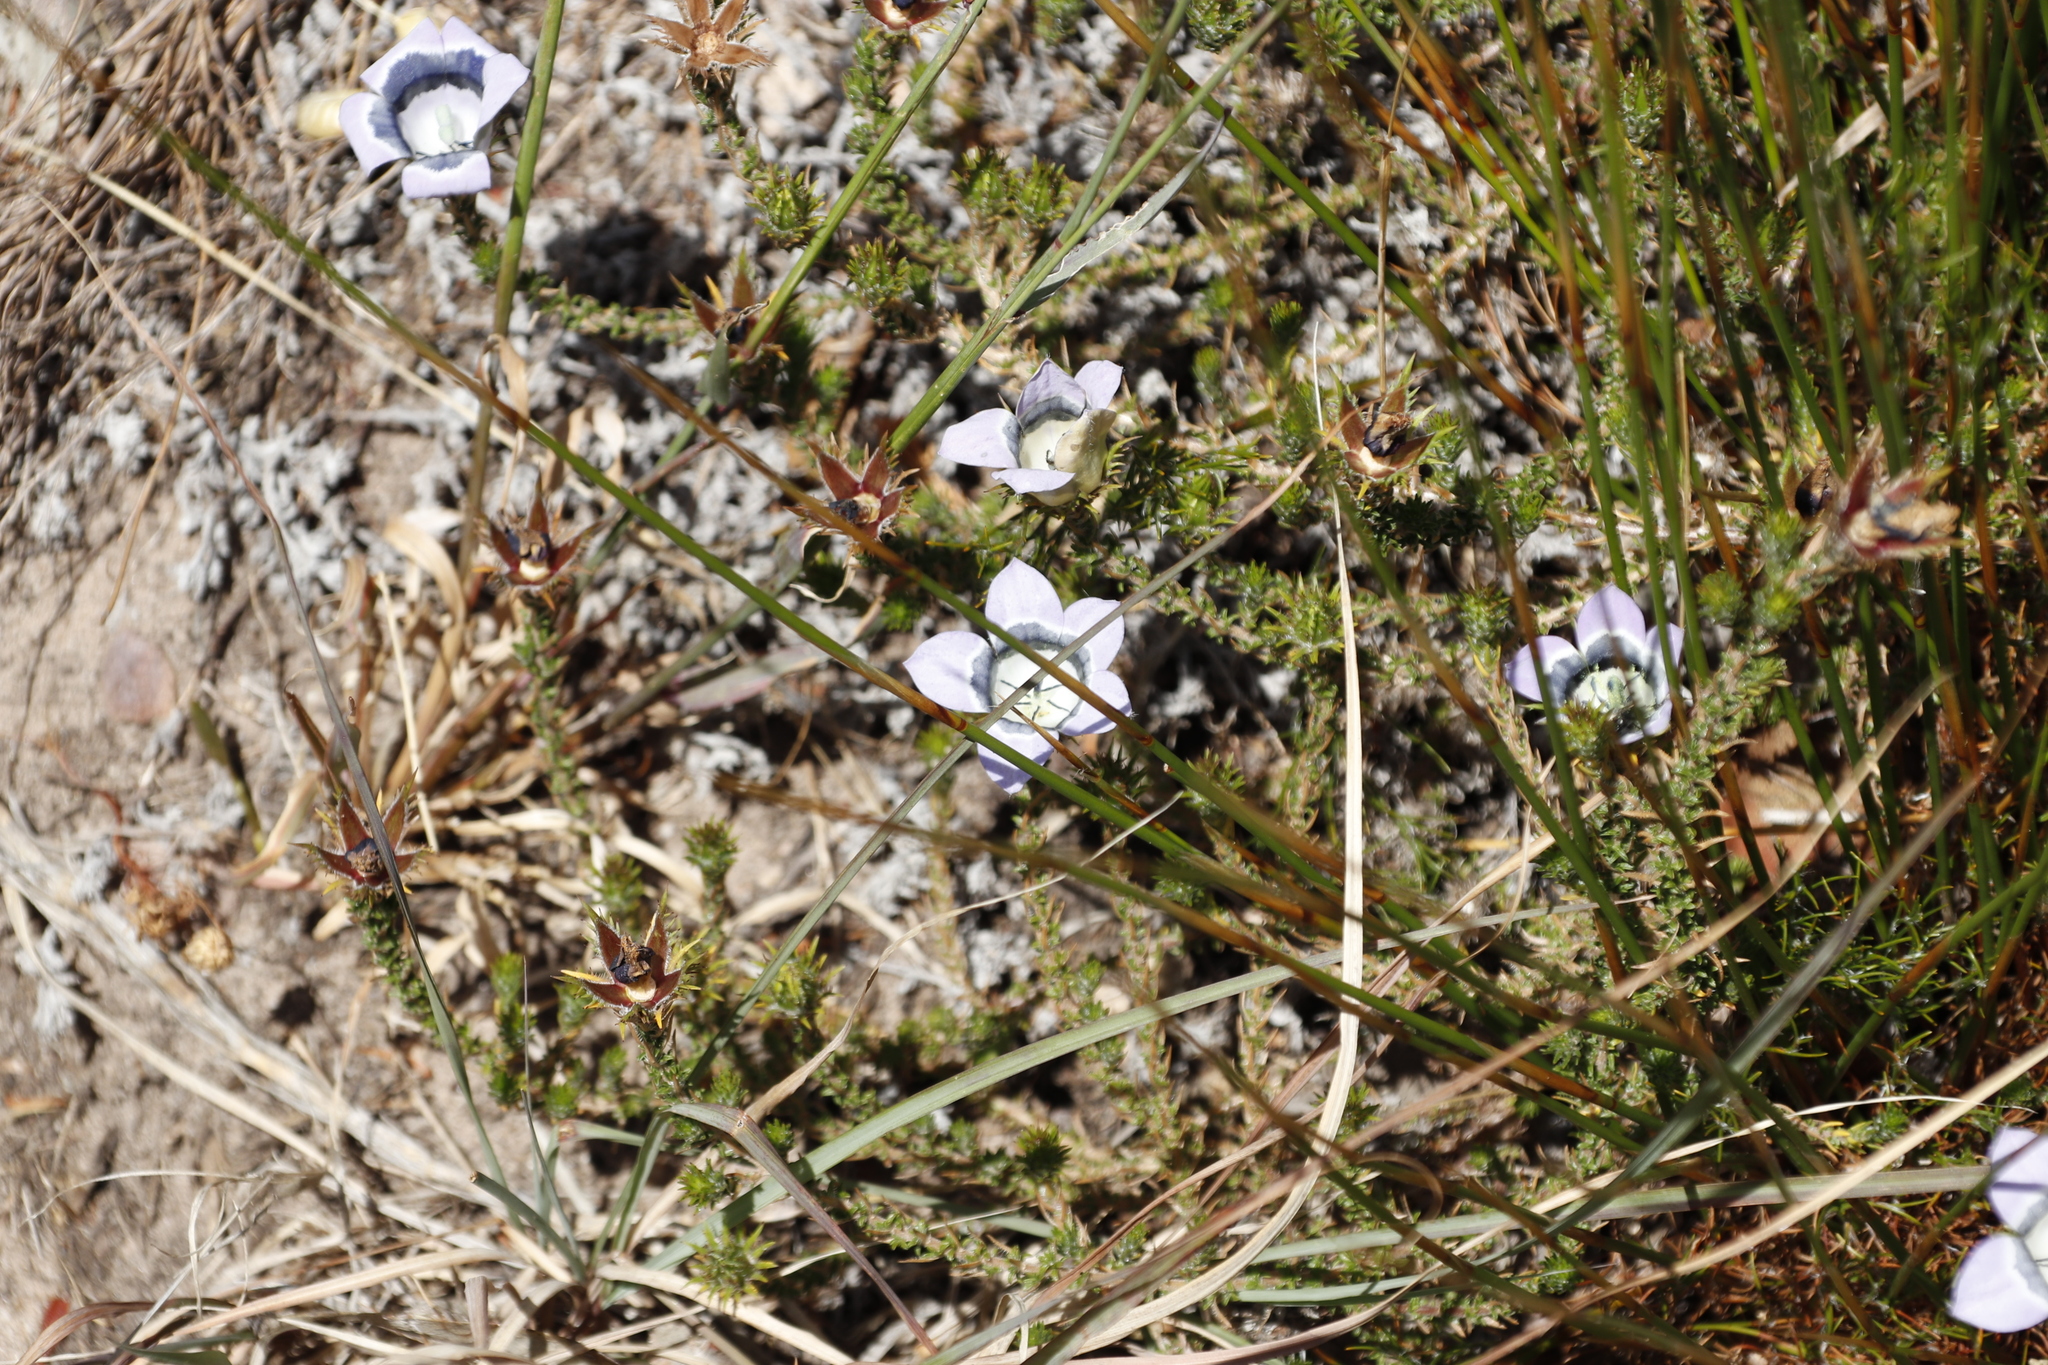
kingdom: Plantae
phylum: Tracheophyta
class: Magnoliopsida
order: Asterales
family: Campanulaceae
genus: Roella
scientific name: Roella ciliata
